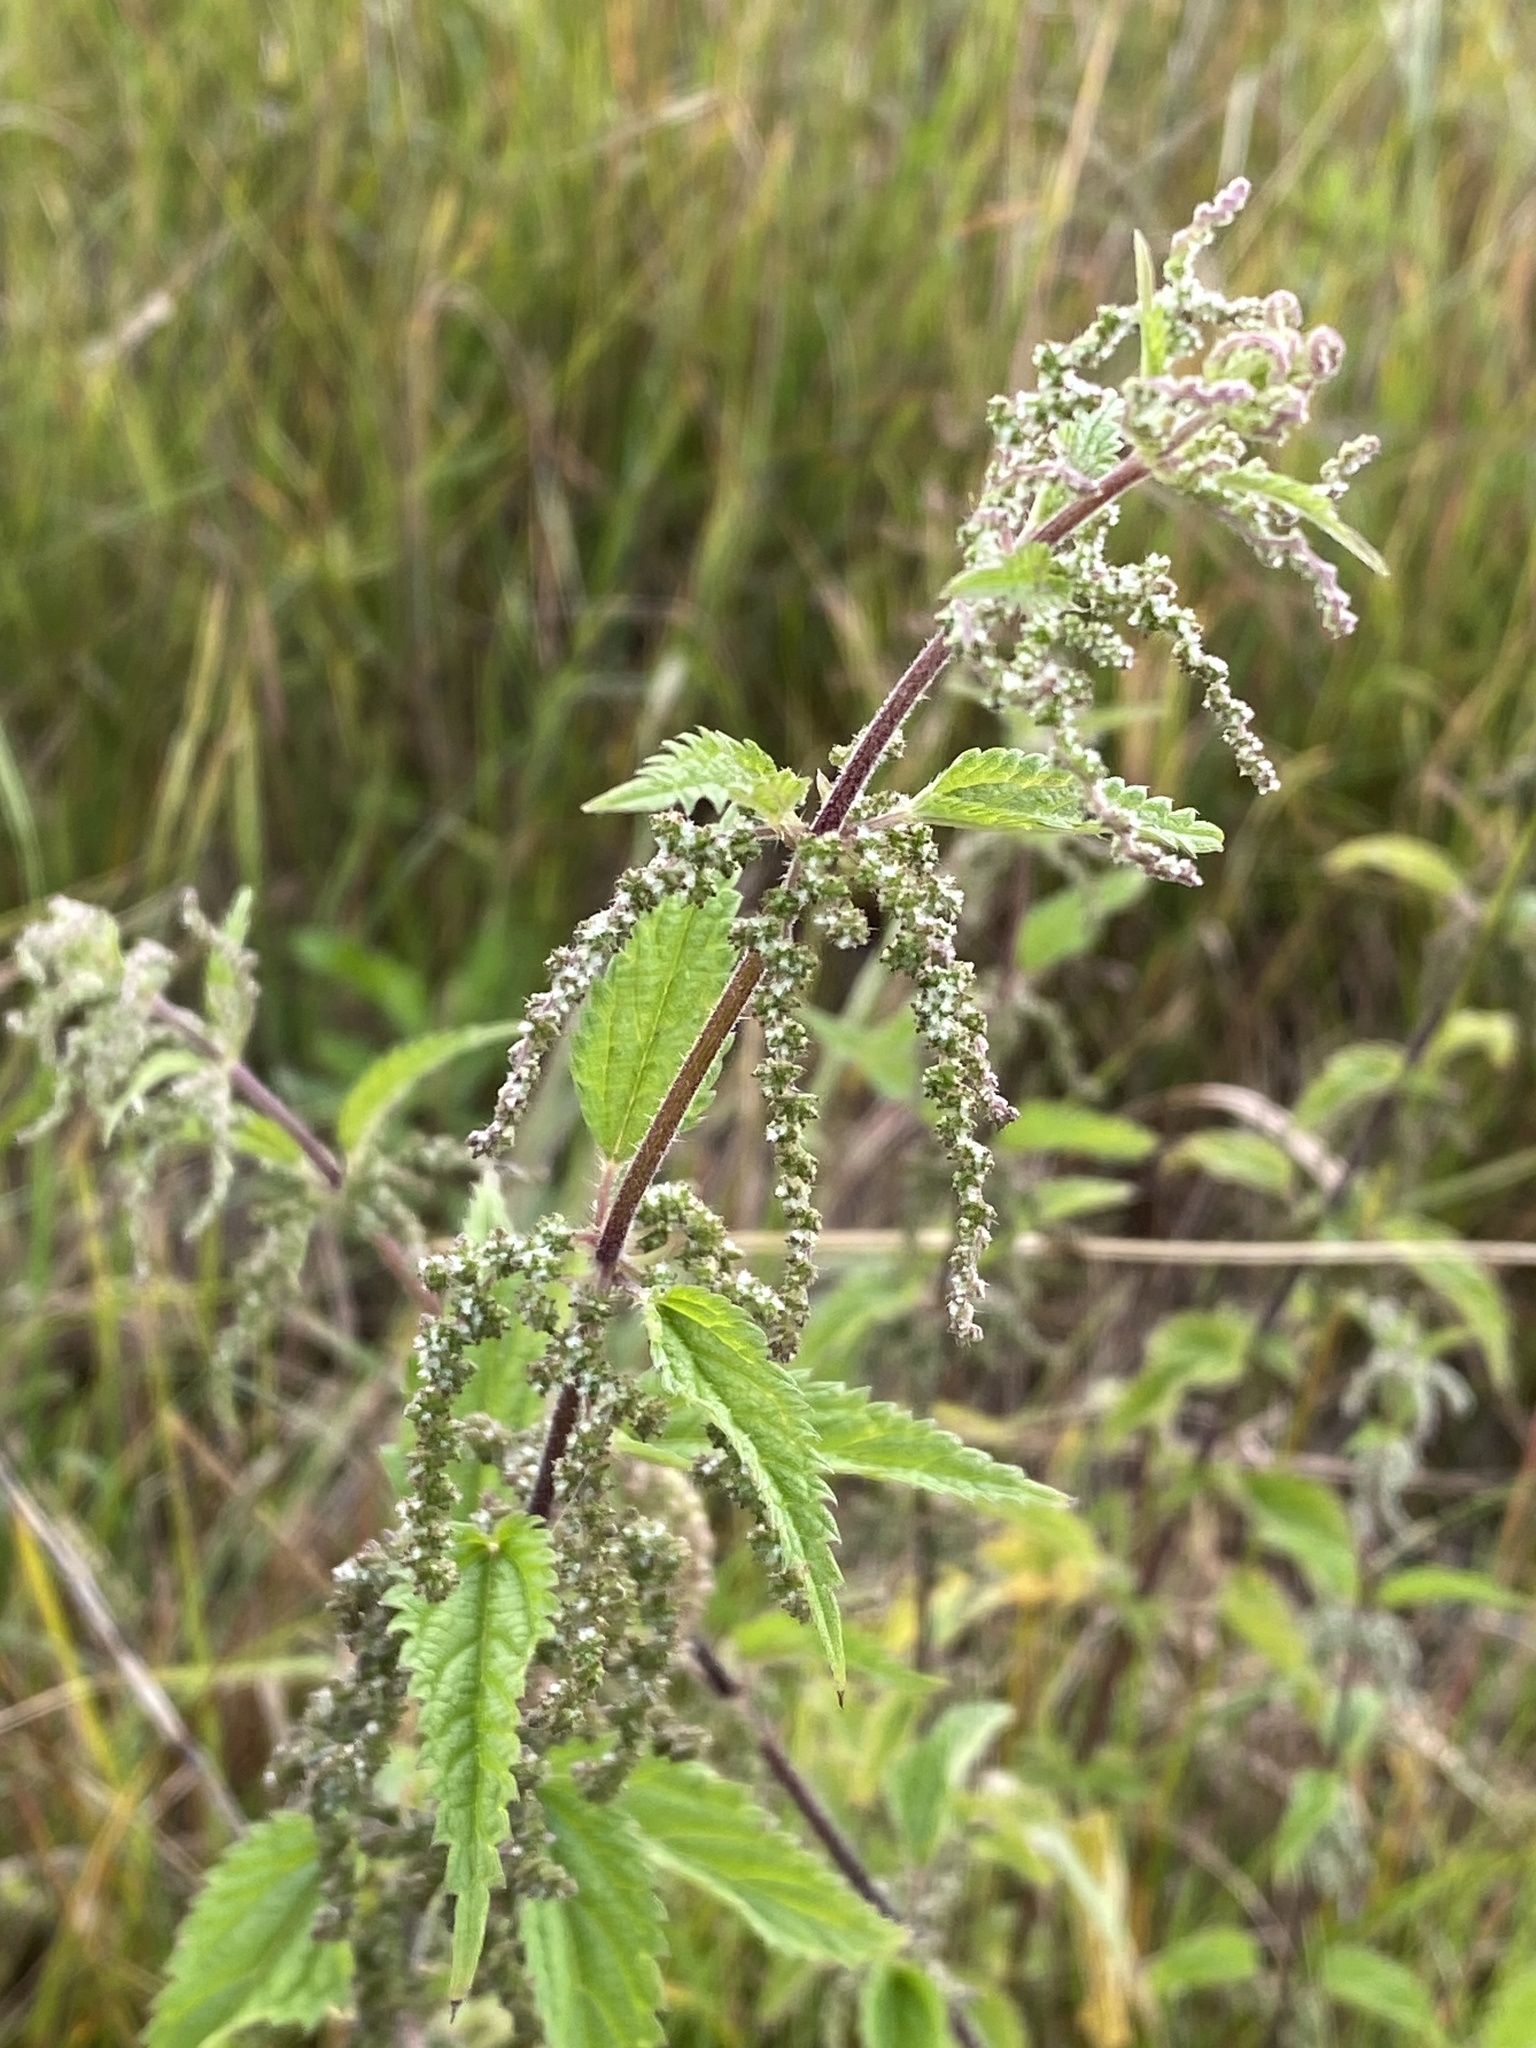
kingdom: Plantae
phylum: Tracheophyta
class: Magnoliopsida
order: Rosales
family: Urticaceae
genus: Urtica
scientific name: Urtica dioica
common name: Common nettle
